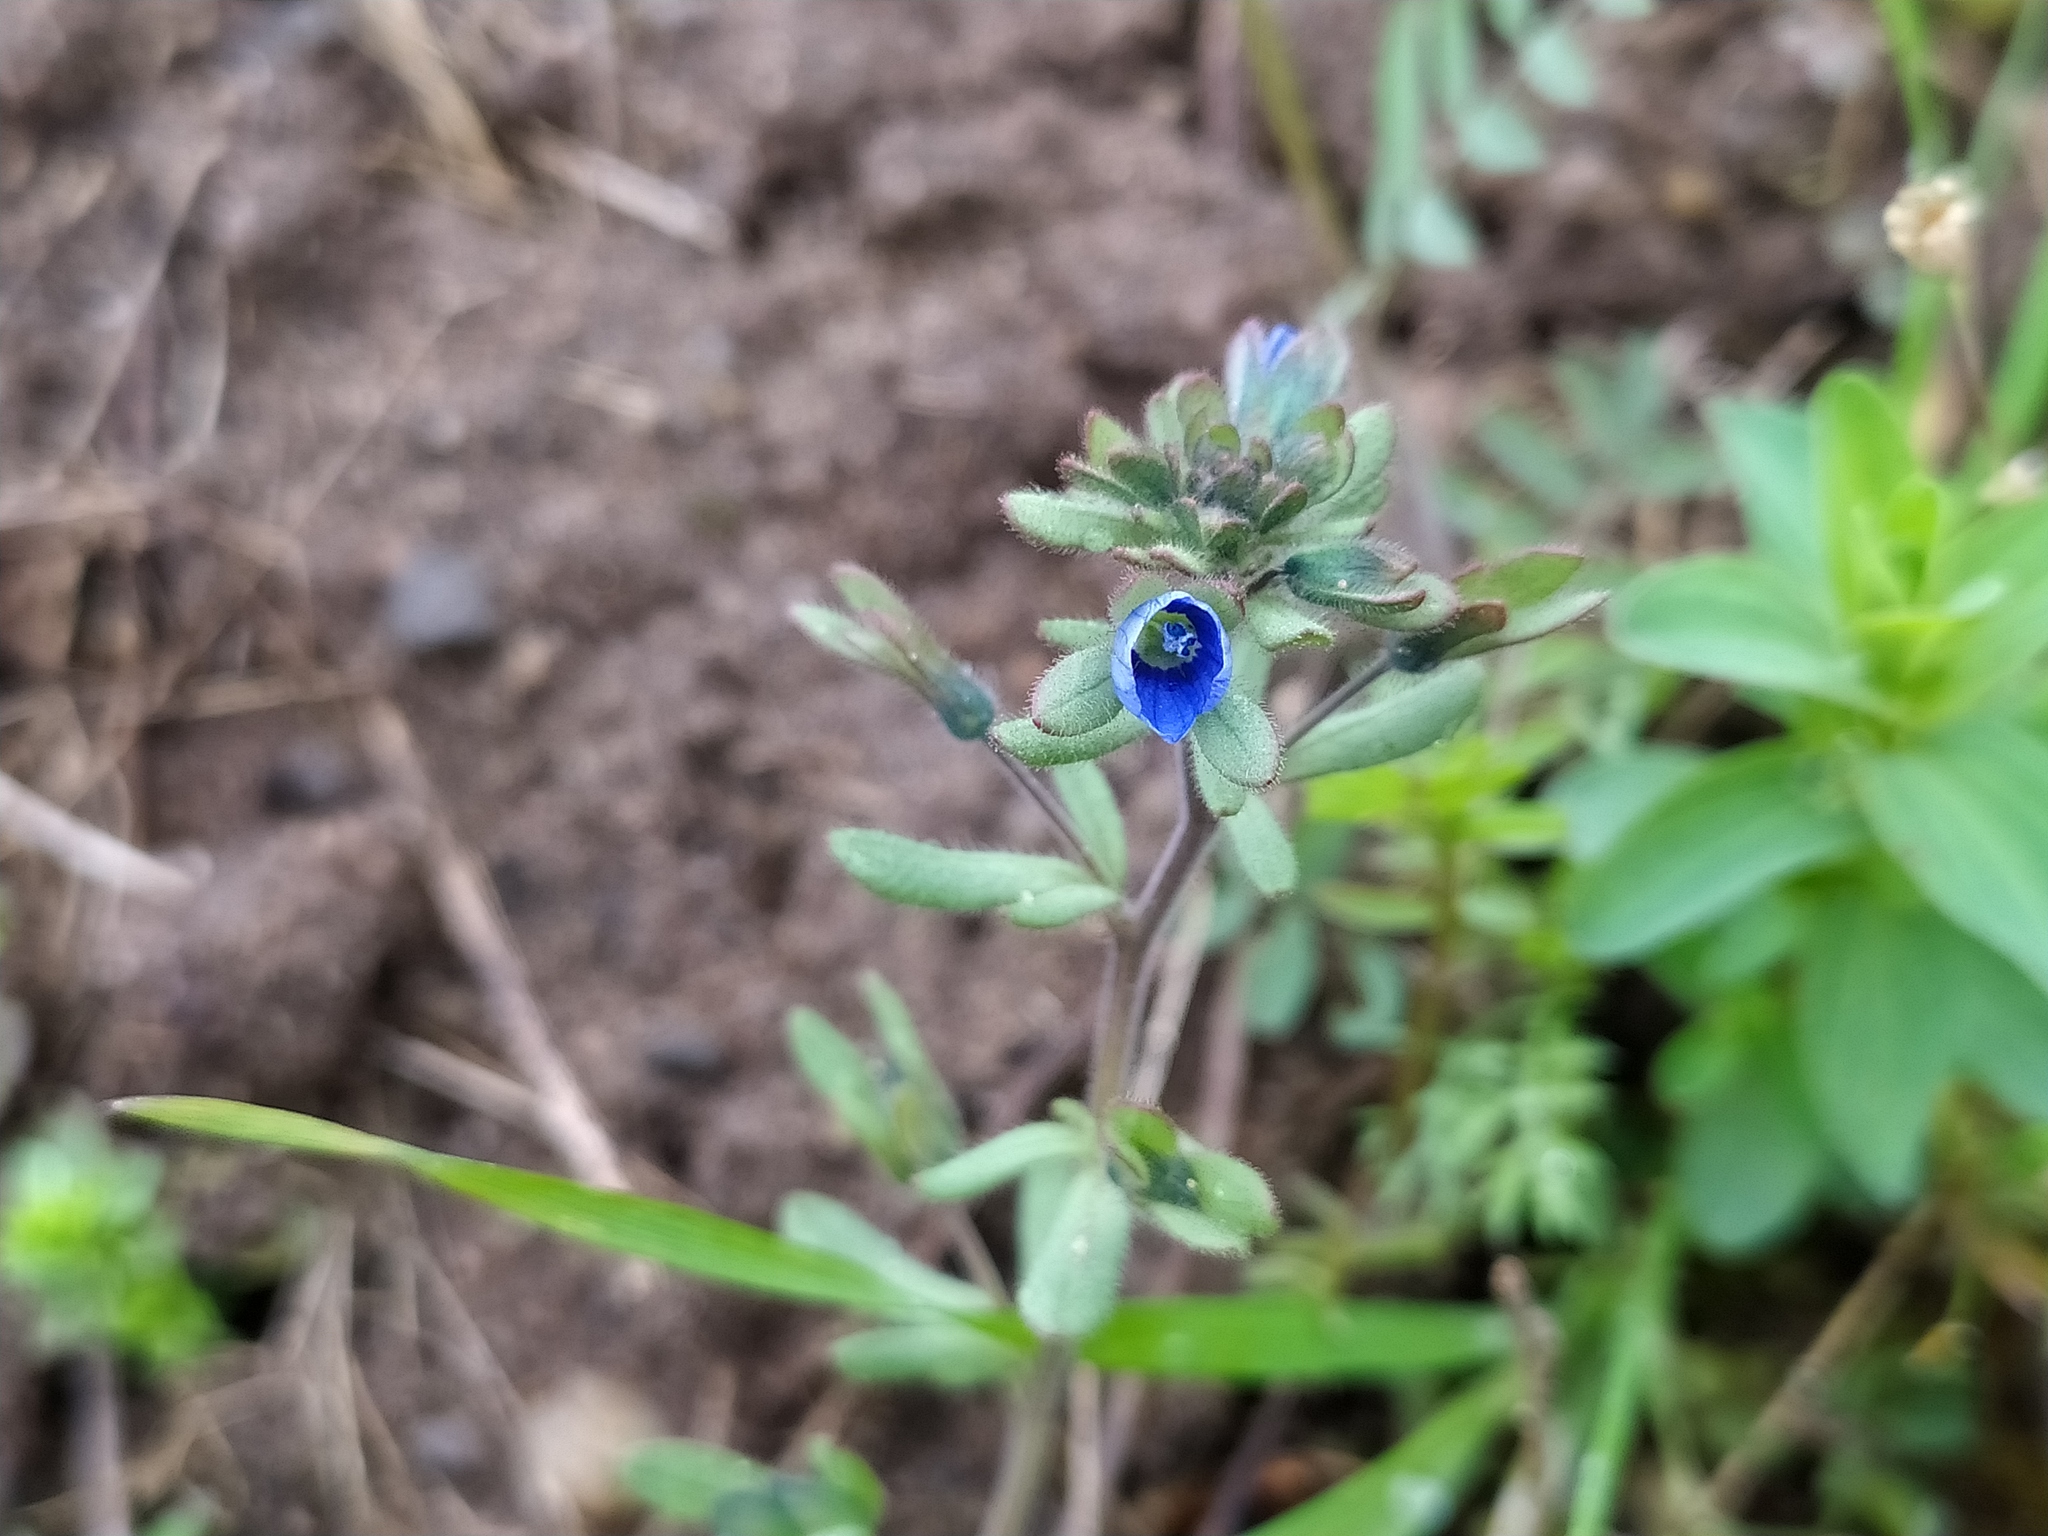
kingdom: Plantae
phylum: Tracheophyta
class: Magnoliopsida
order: Lamiales
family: Plantaginaceae
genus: Veronica
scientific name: Veronica triphyllos
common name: Fingered speedwell
